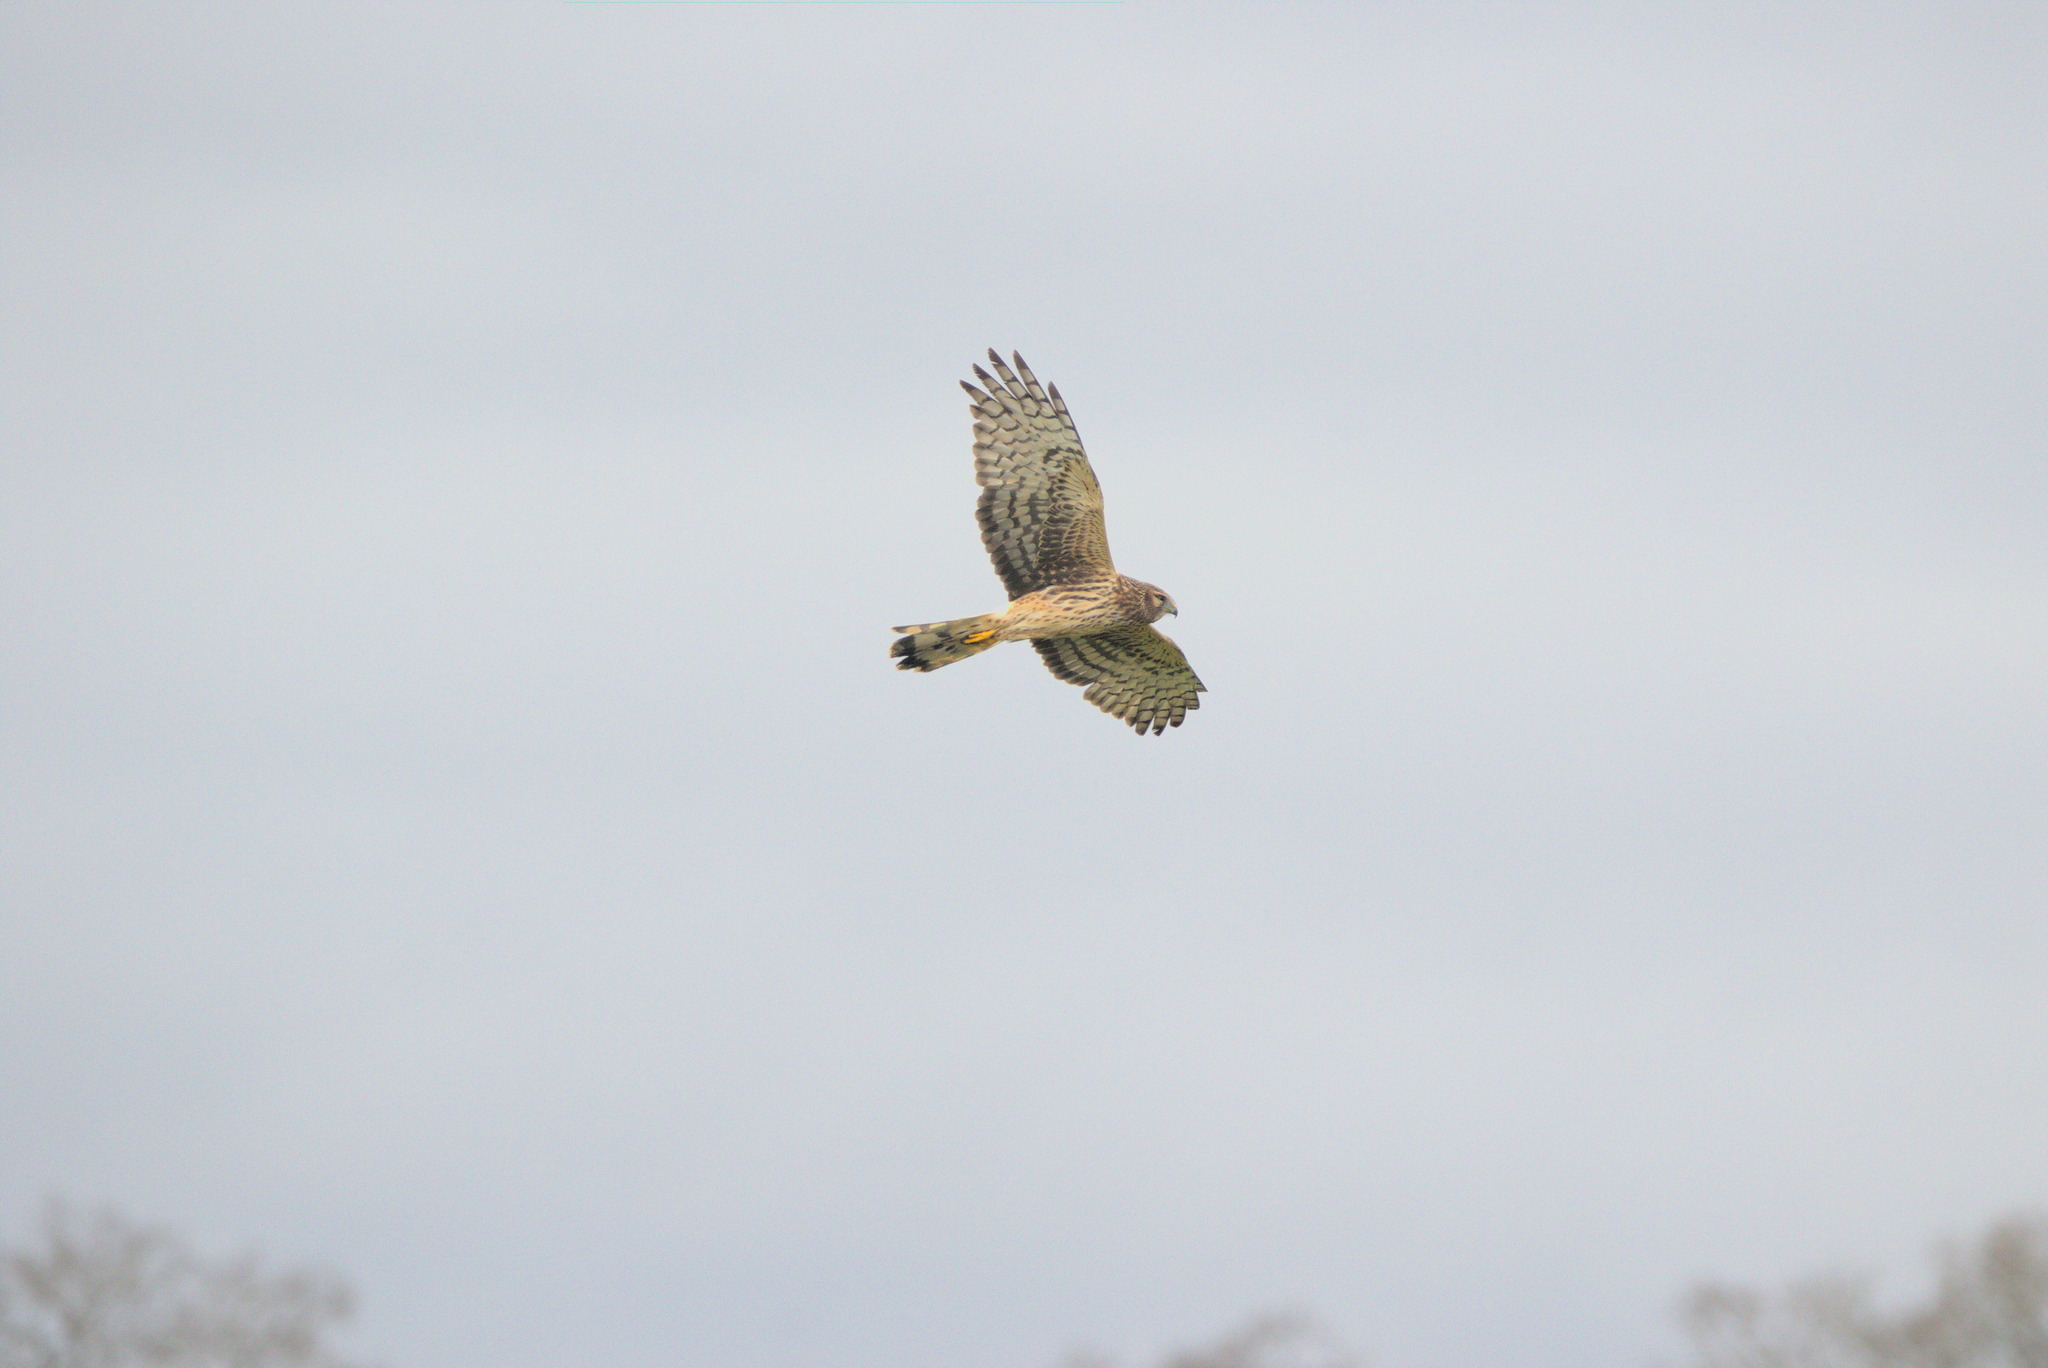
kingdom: Animalia
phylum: Chordata
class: Aves
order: Accipitriformes
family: Accipitridae
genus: Circus
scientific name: Circus cyaneus
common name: Hen harrier
